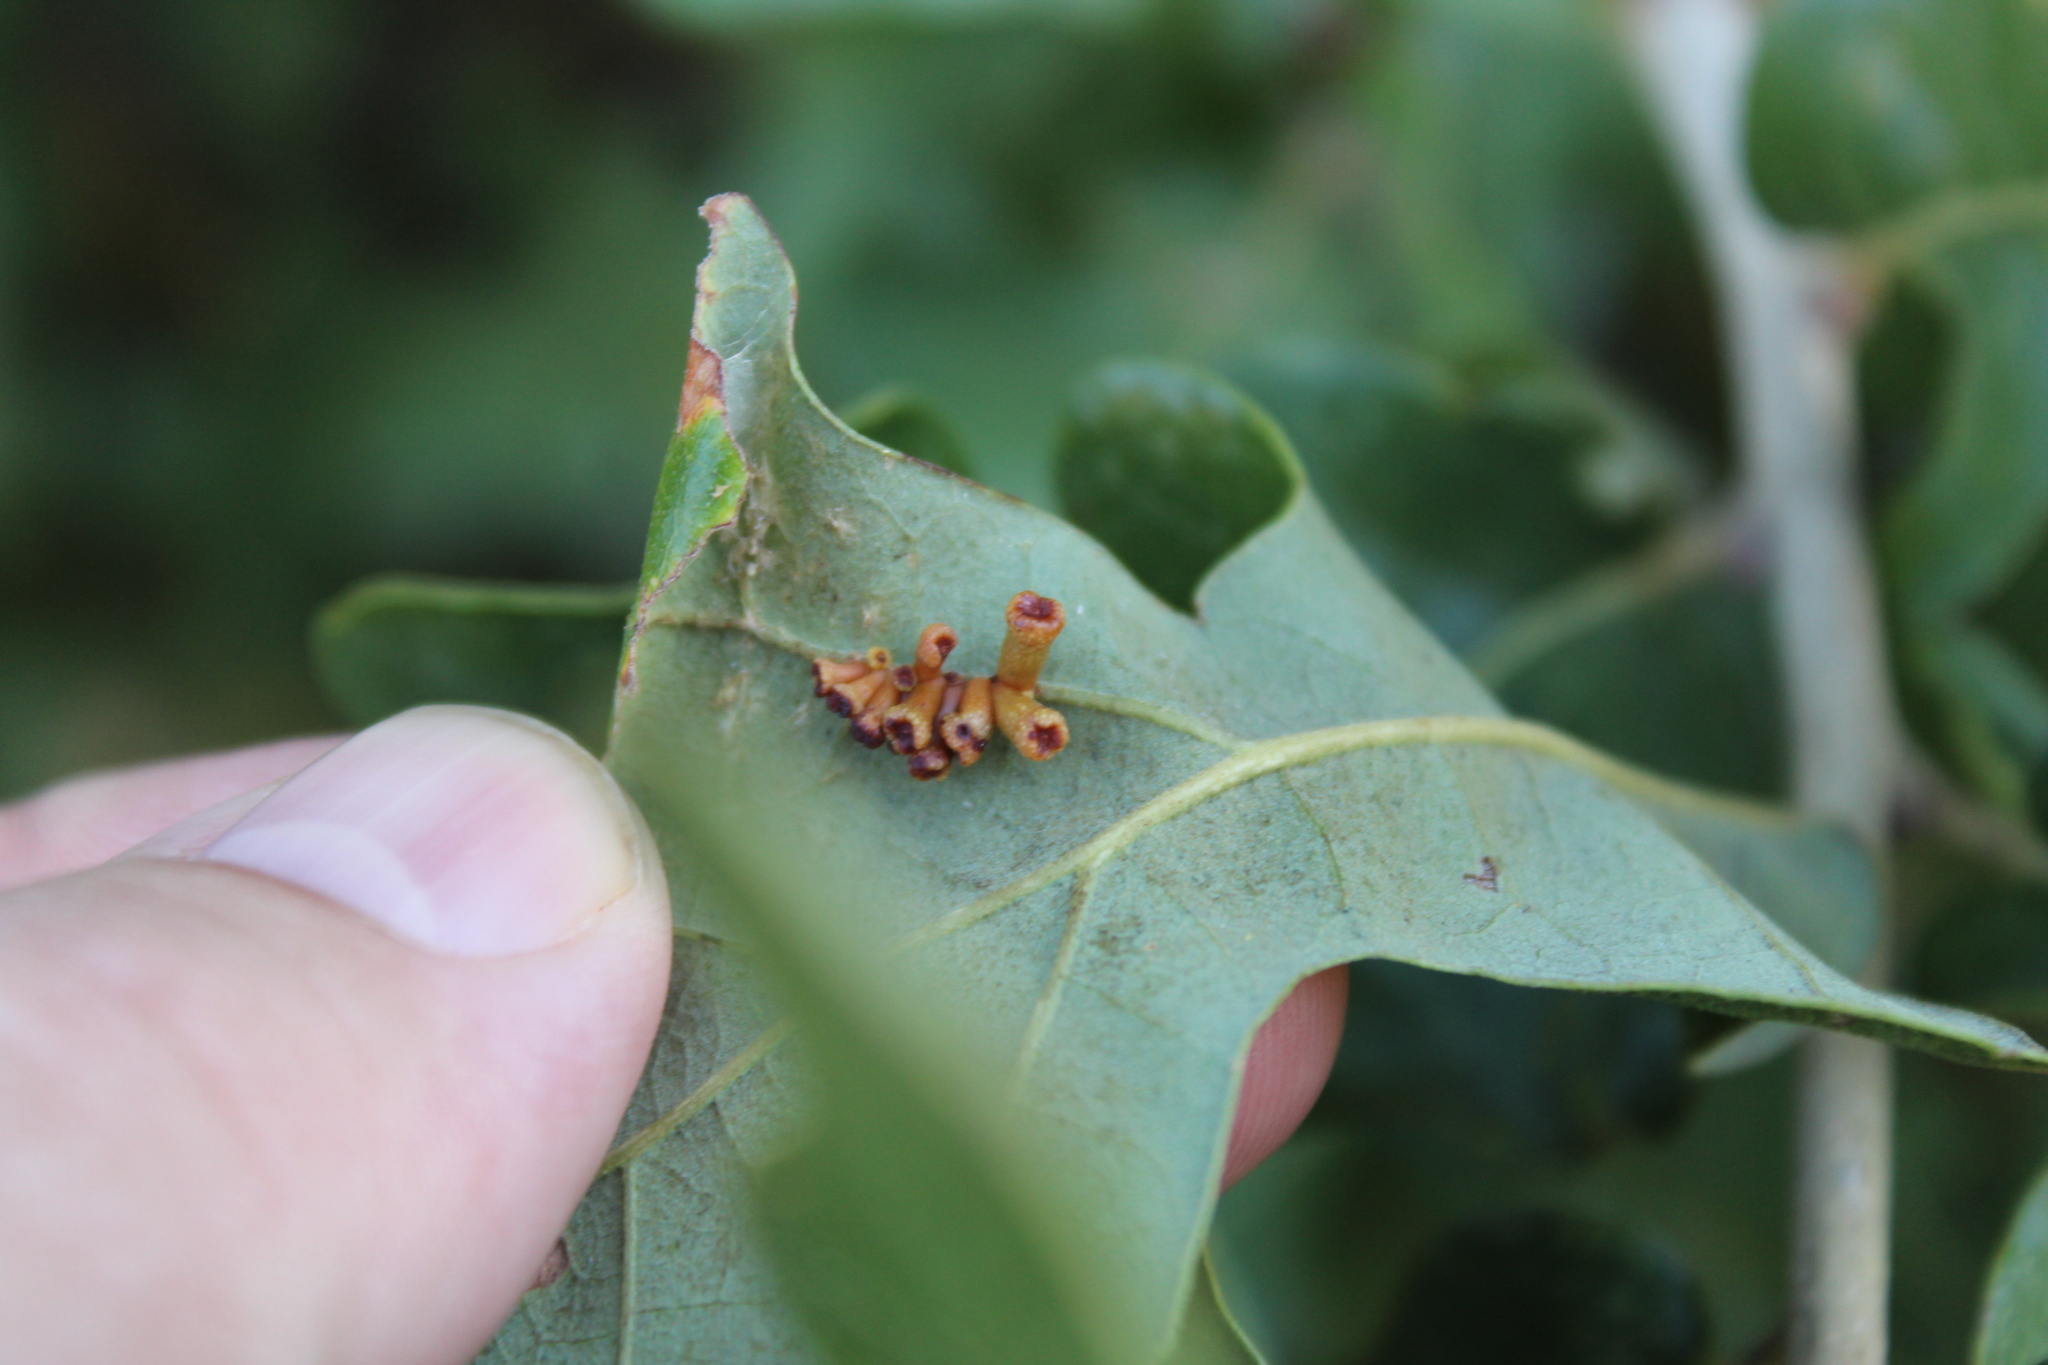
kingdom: Animalia
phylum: Arthropoda
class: Insecta
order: Hymenoptera
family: Cynipidae
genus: Andricus
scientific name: Andricus lustrans
